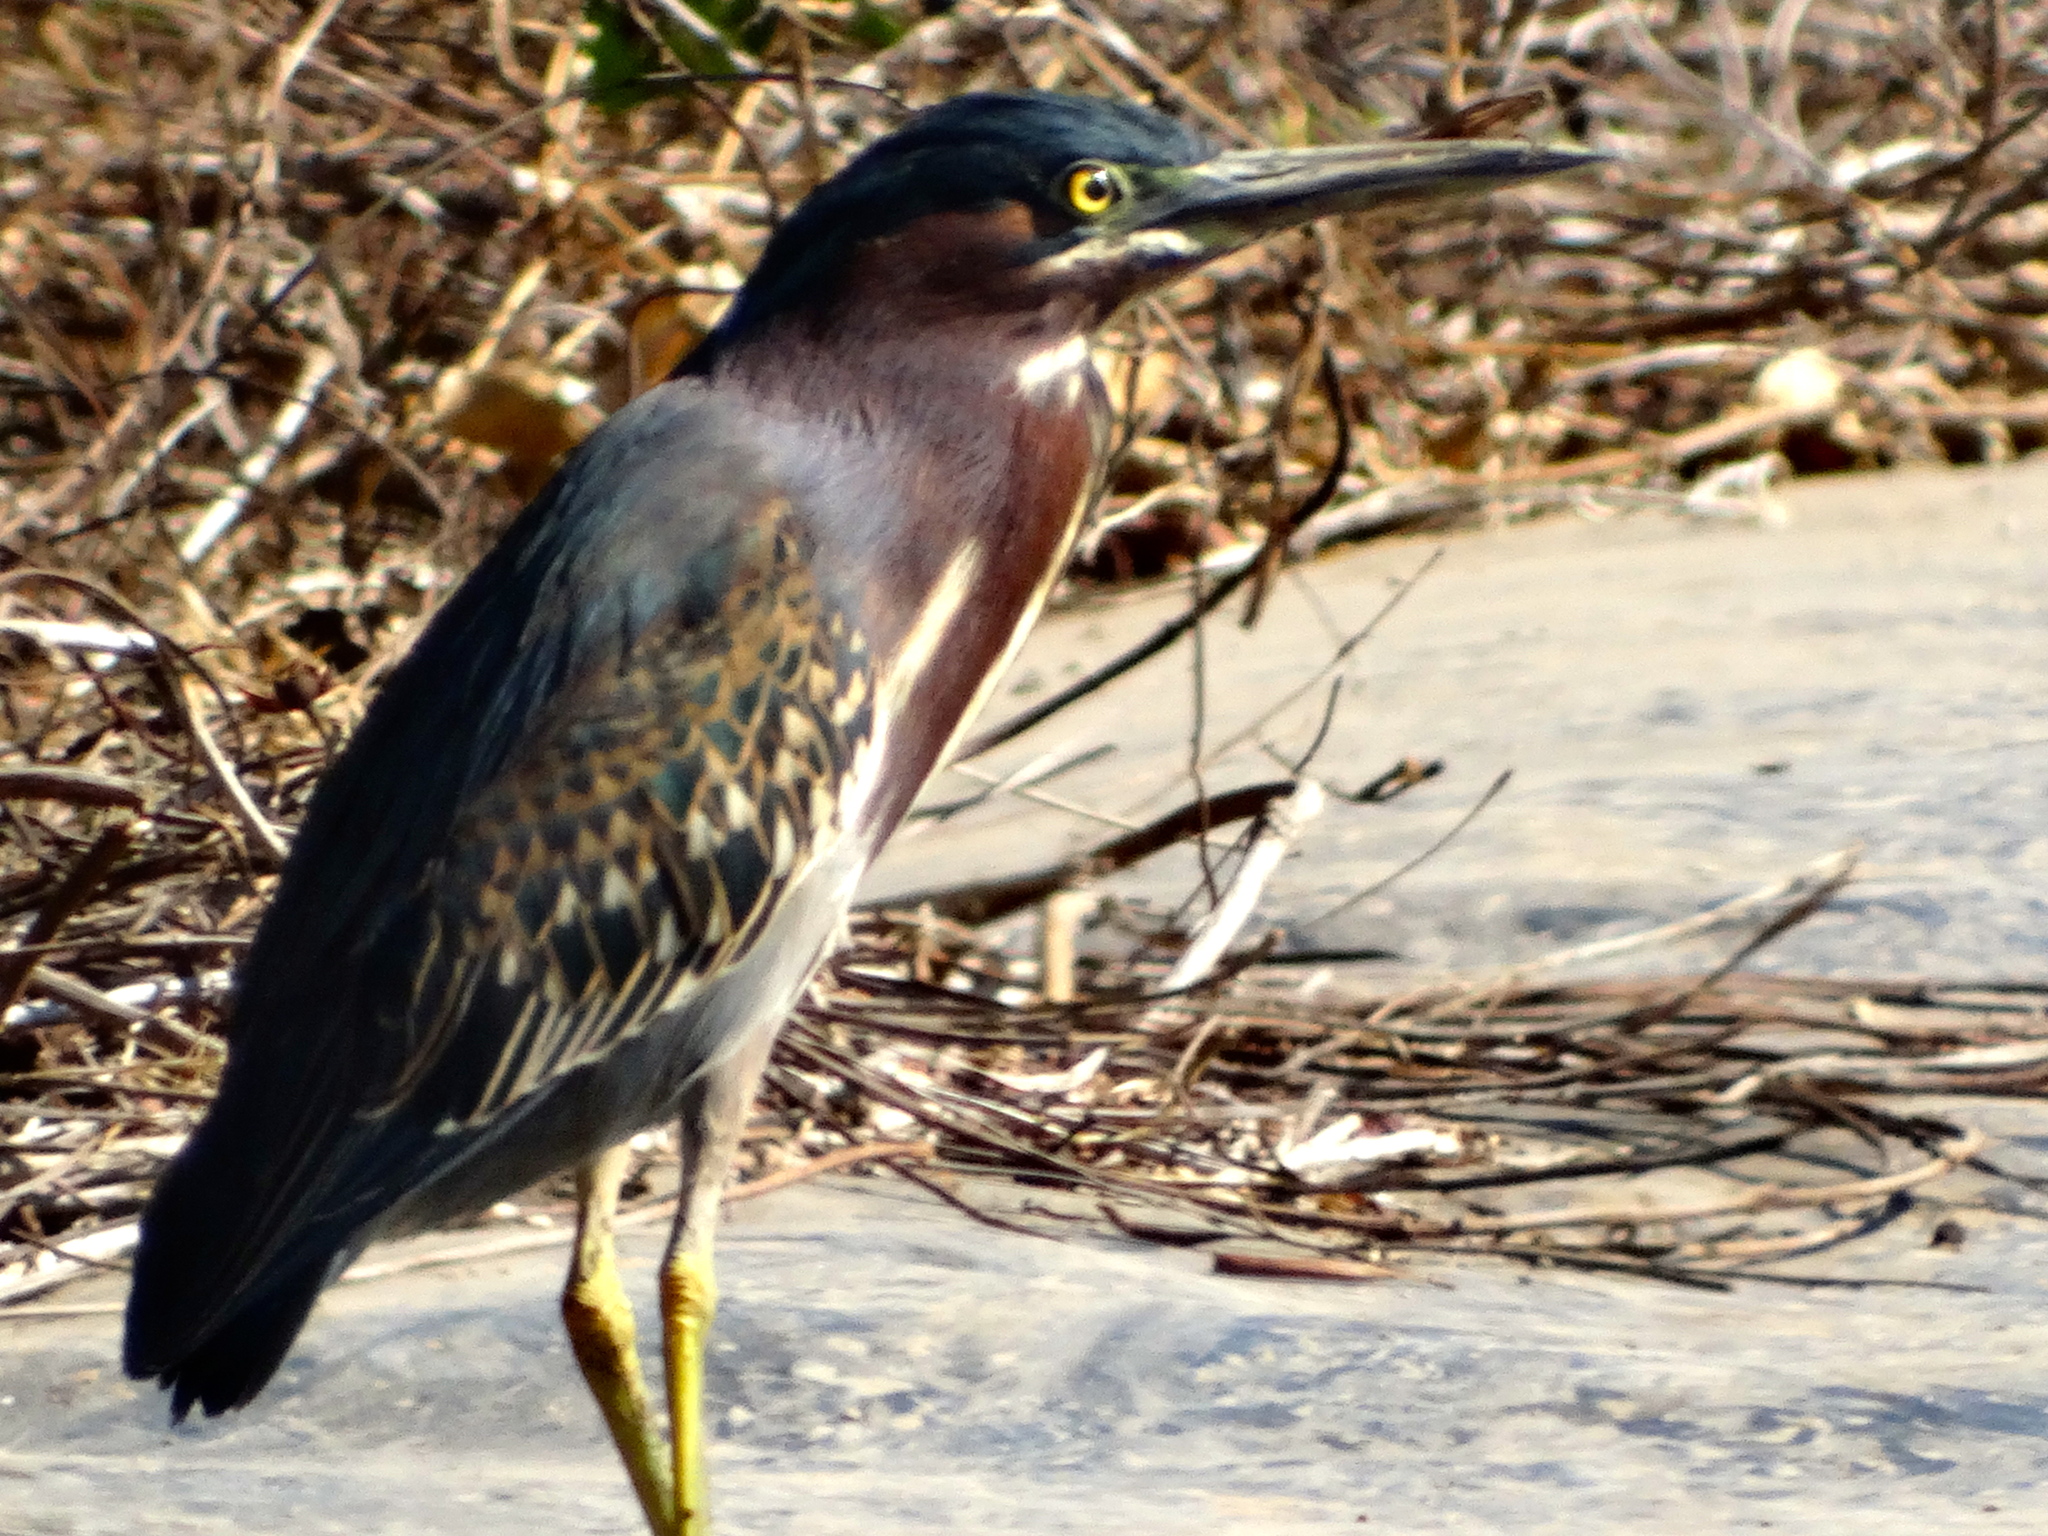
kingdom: Animalia
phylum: Chordata
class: Aves
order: Pelecaniformes
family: Ardeidae
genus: Butorides
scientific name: Butorides virescens
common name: Green heron
